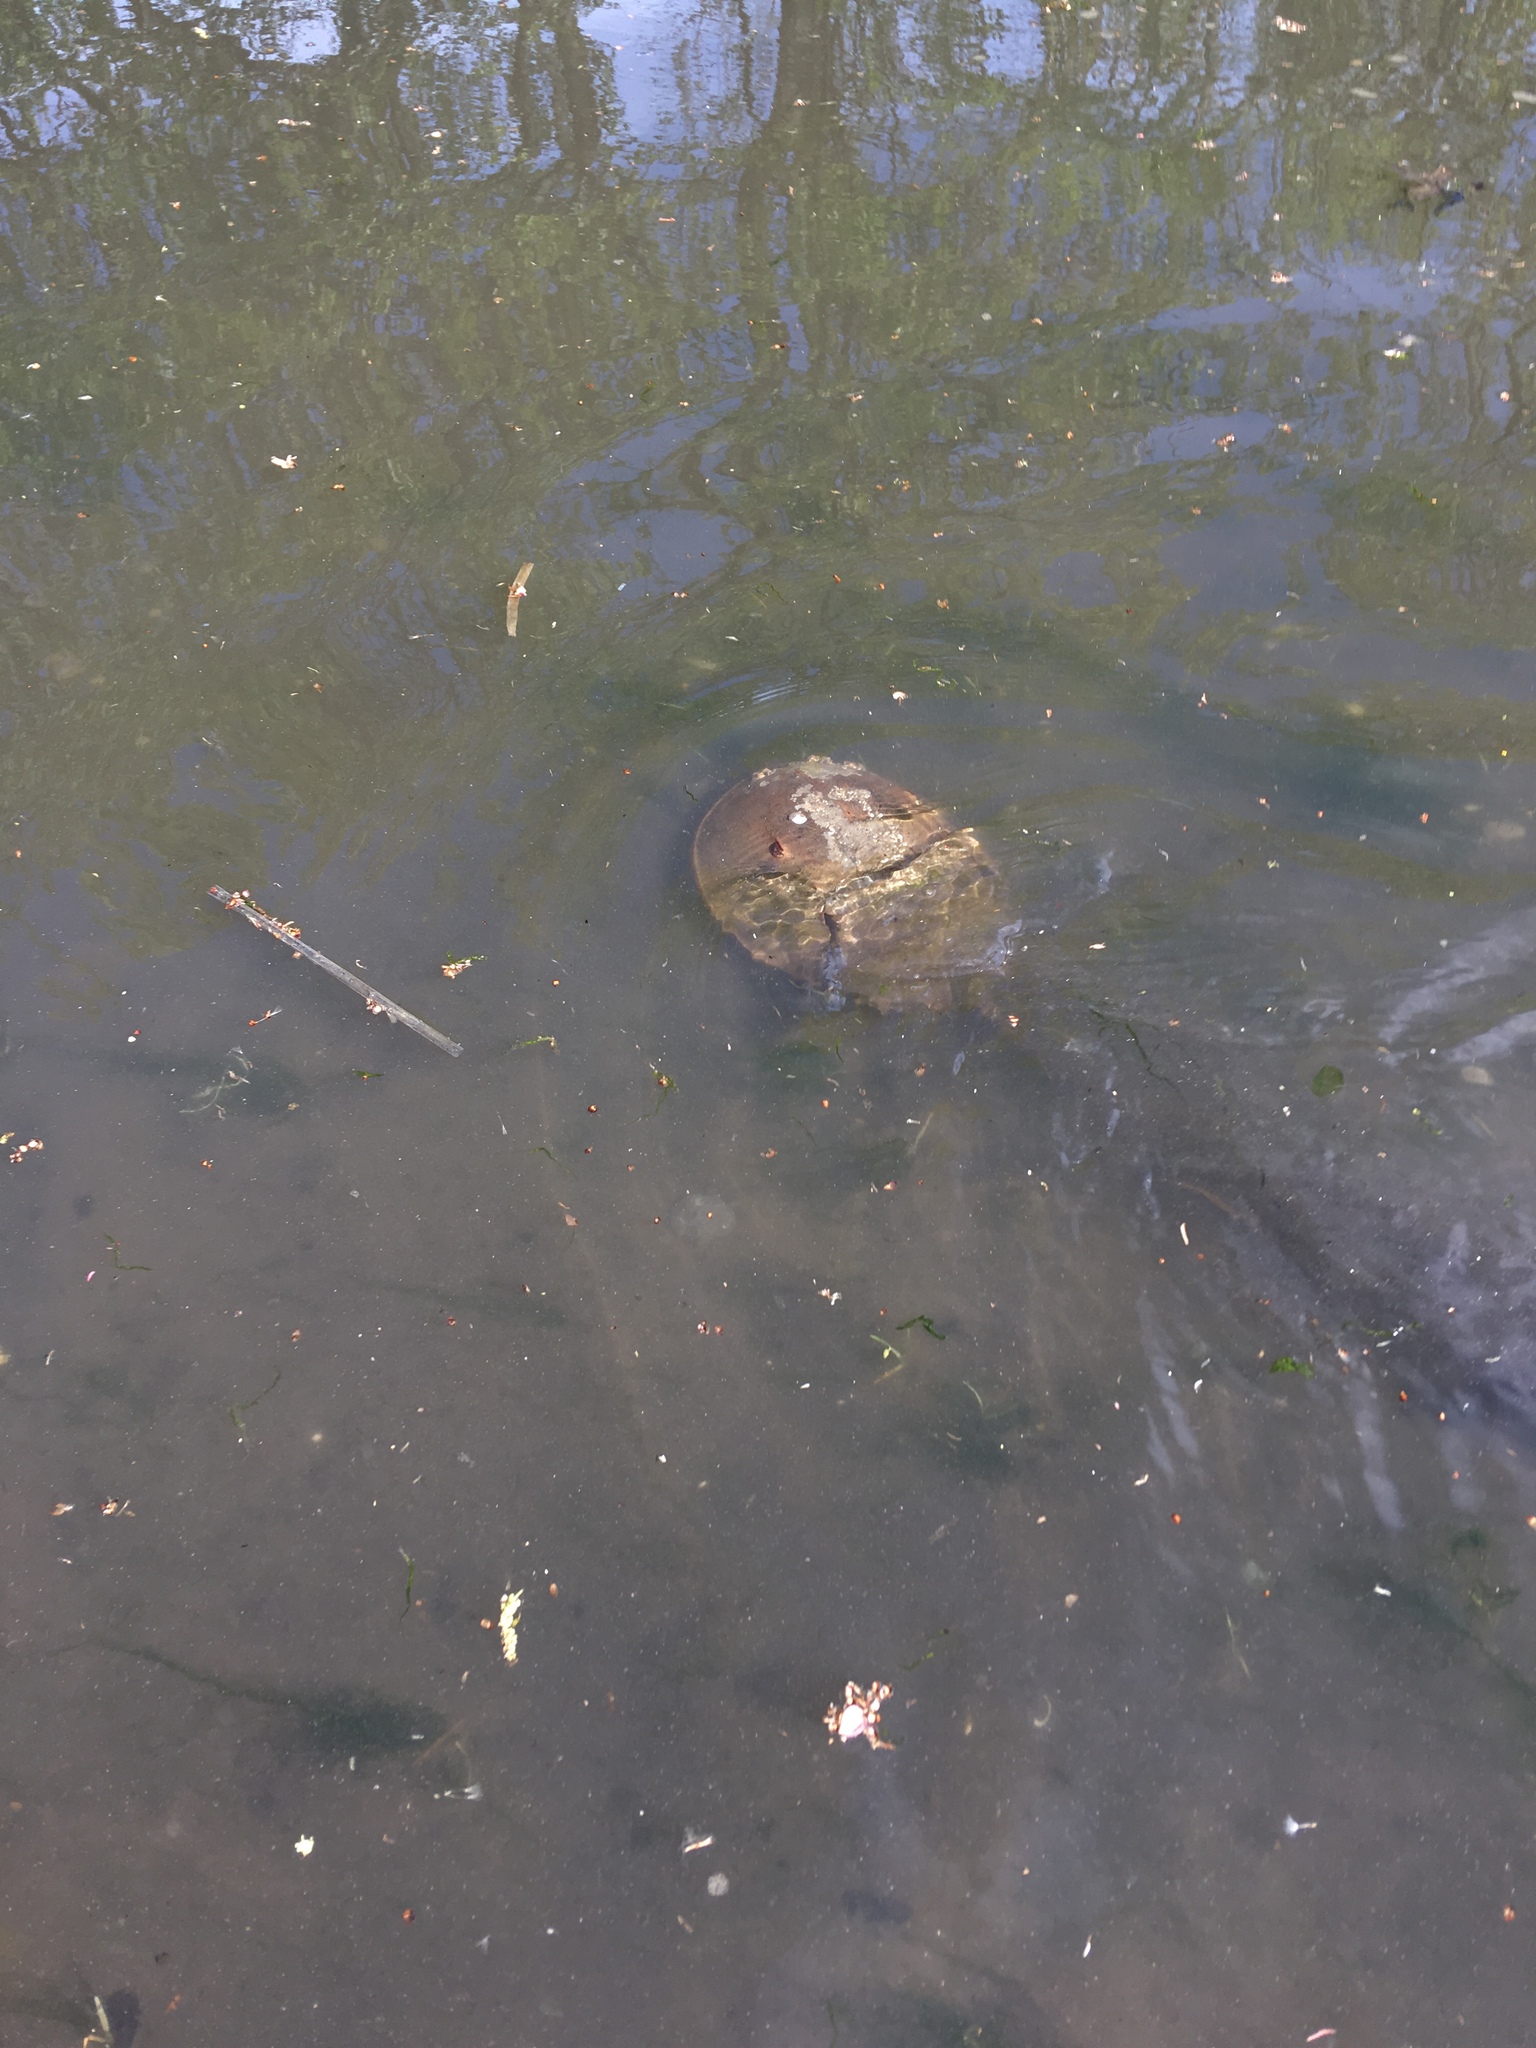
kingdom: Animalia
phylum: Arthropoda
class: Merostomata
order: Xiphosurida
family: Limulidae
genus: Limulus
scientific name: Limulus polyphemus
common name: Horseshoe crab
